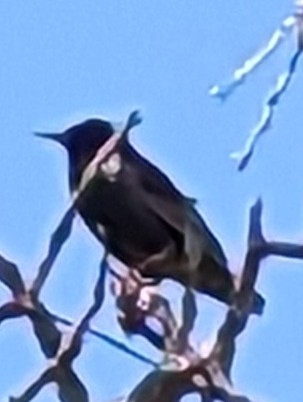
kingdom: Animalia
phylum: Chordata
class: Aves
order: Passeriformes
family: Sturnidae
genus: Sturnus
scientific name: Sturnus vulgaris
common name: Common starling
